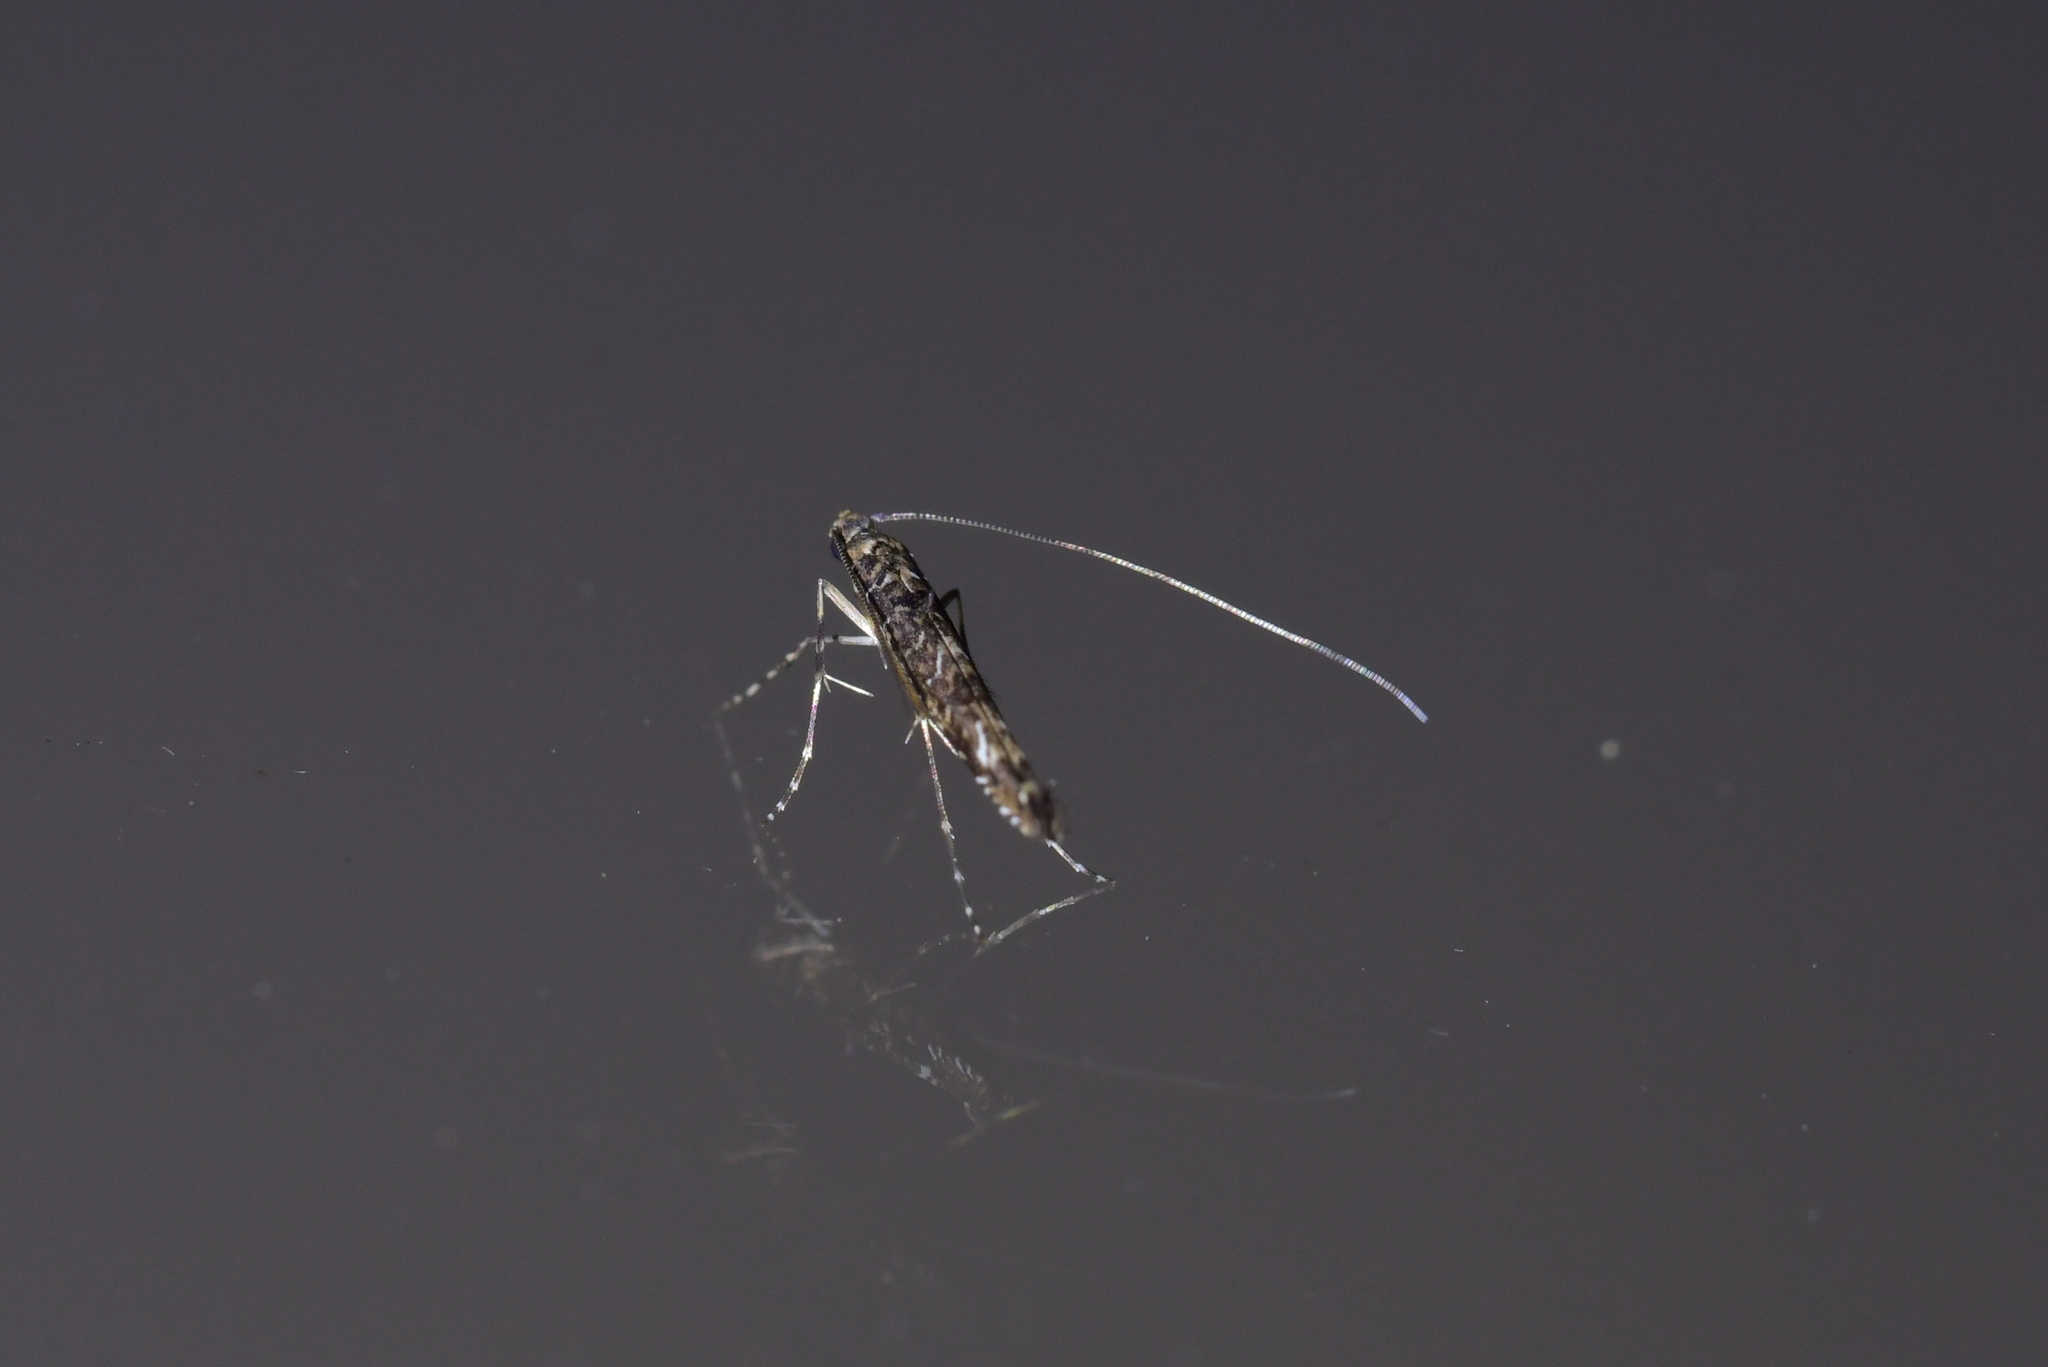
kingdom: Animalia
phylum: Arthropoda
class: Insecta
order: Lepidoptera
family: Gracillariidae
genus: Conopomorpha
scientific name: Conopomorpha cyanospila
